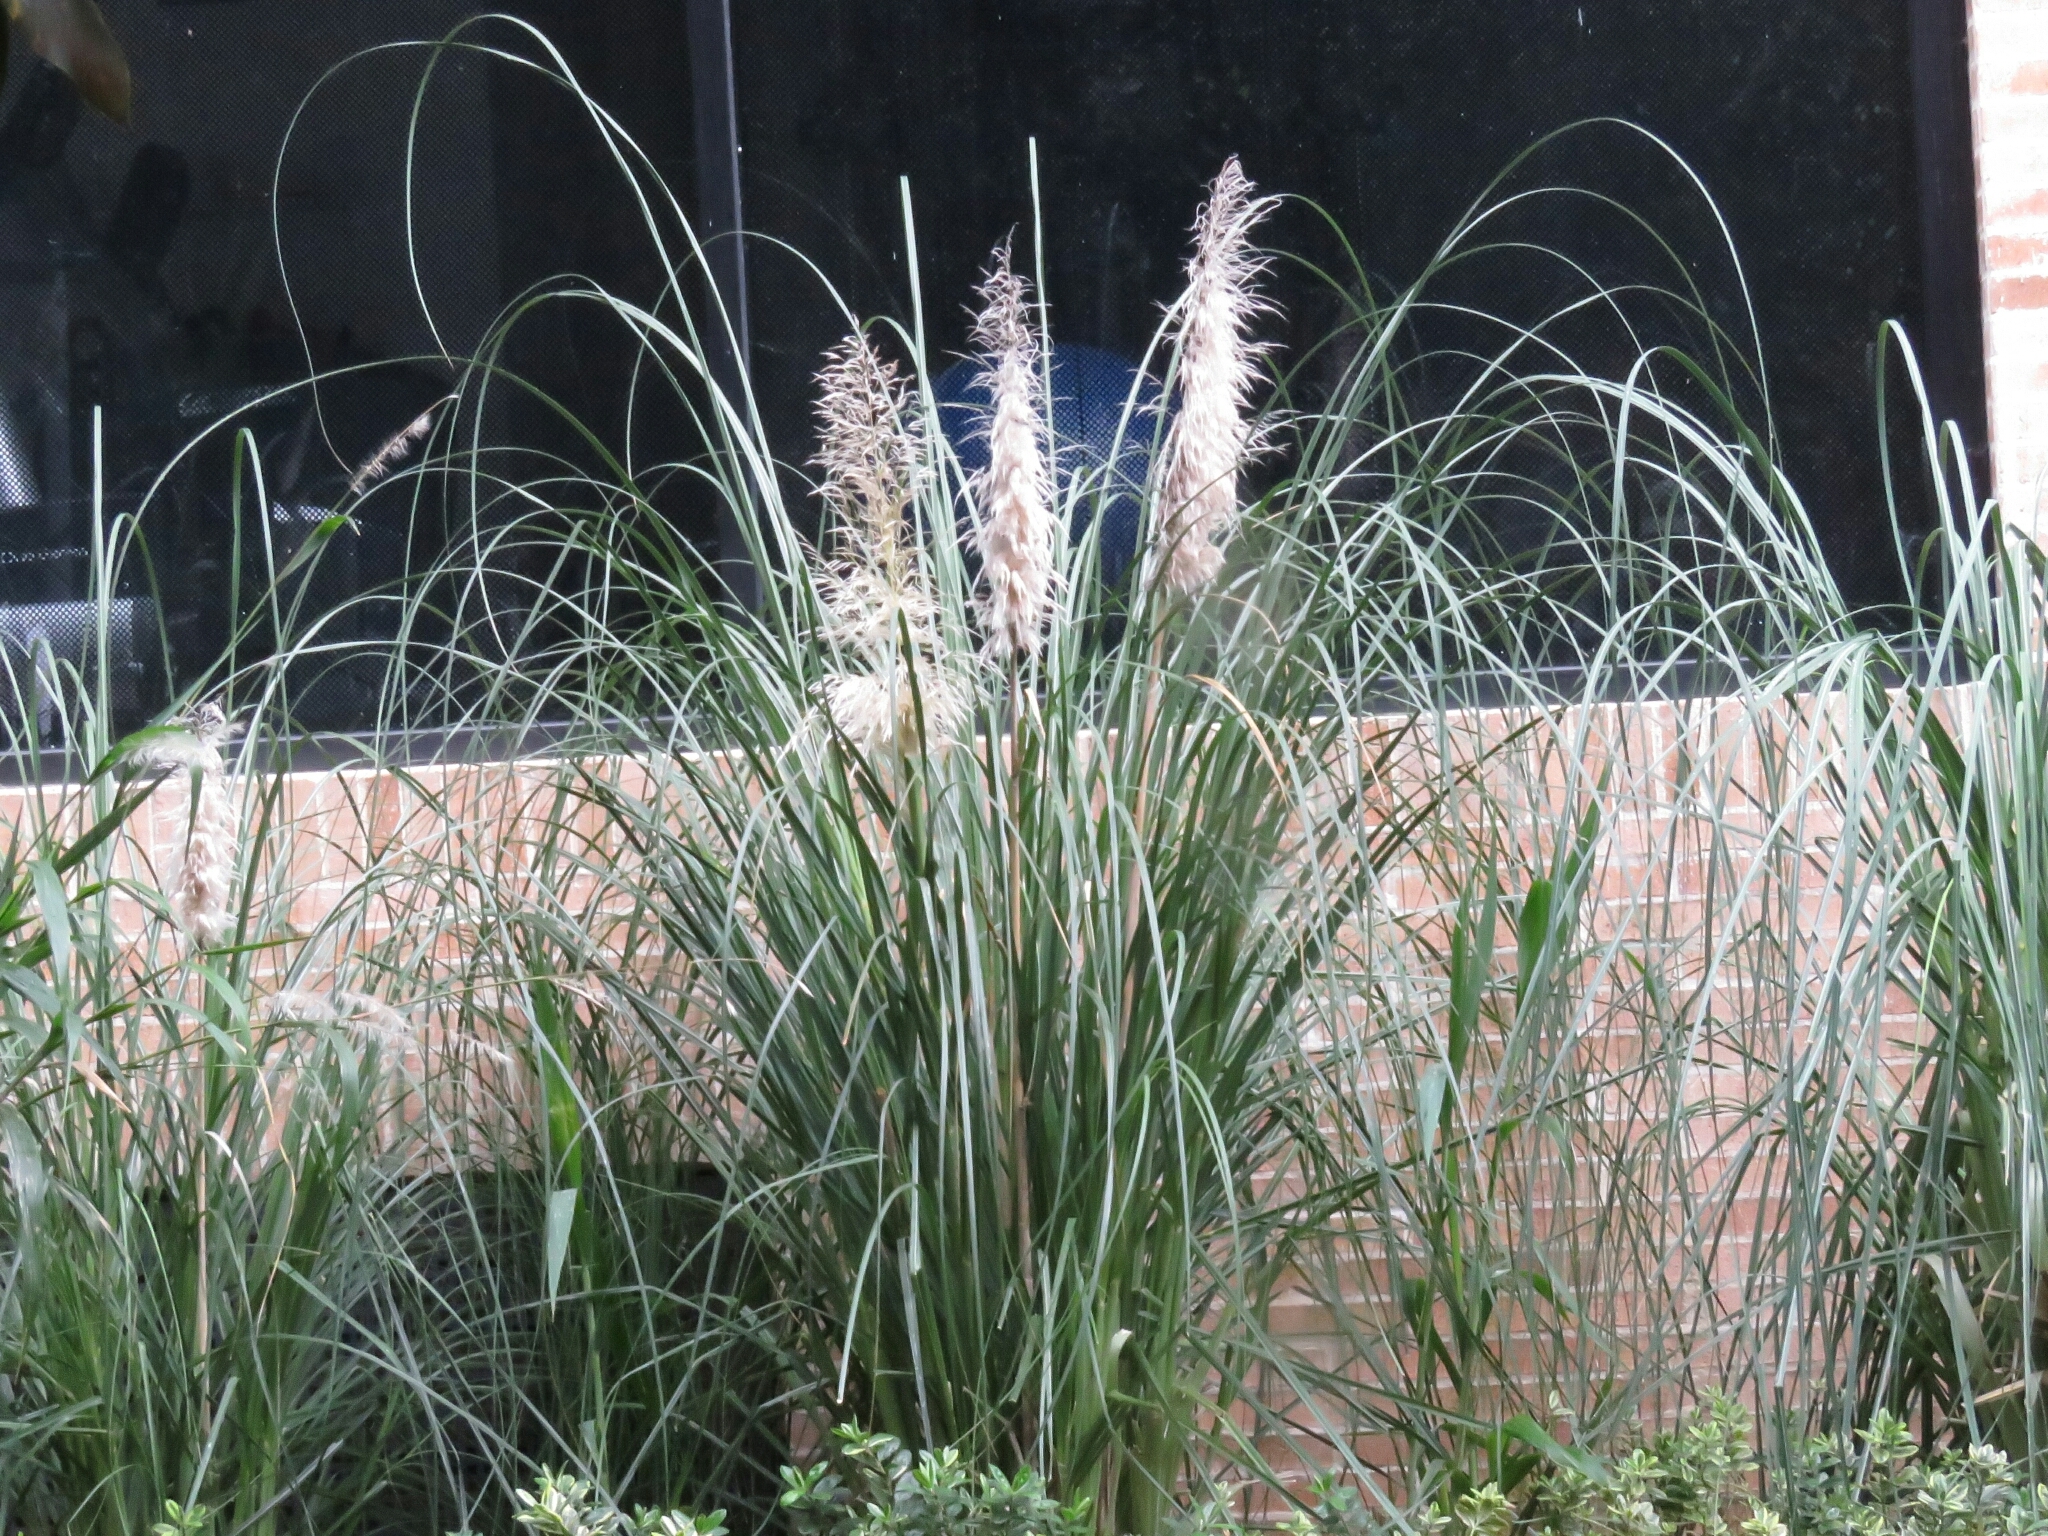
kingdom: Plantae
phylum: Tracheophyta
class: Liliopsida
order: Poales
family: Poaceae
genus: Cortaderia
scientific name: Cortaderia selloana
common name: Uruguayan pampas grass
